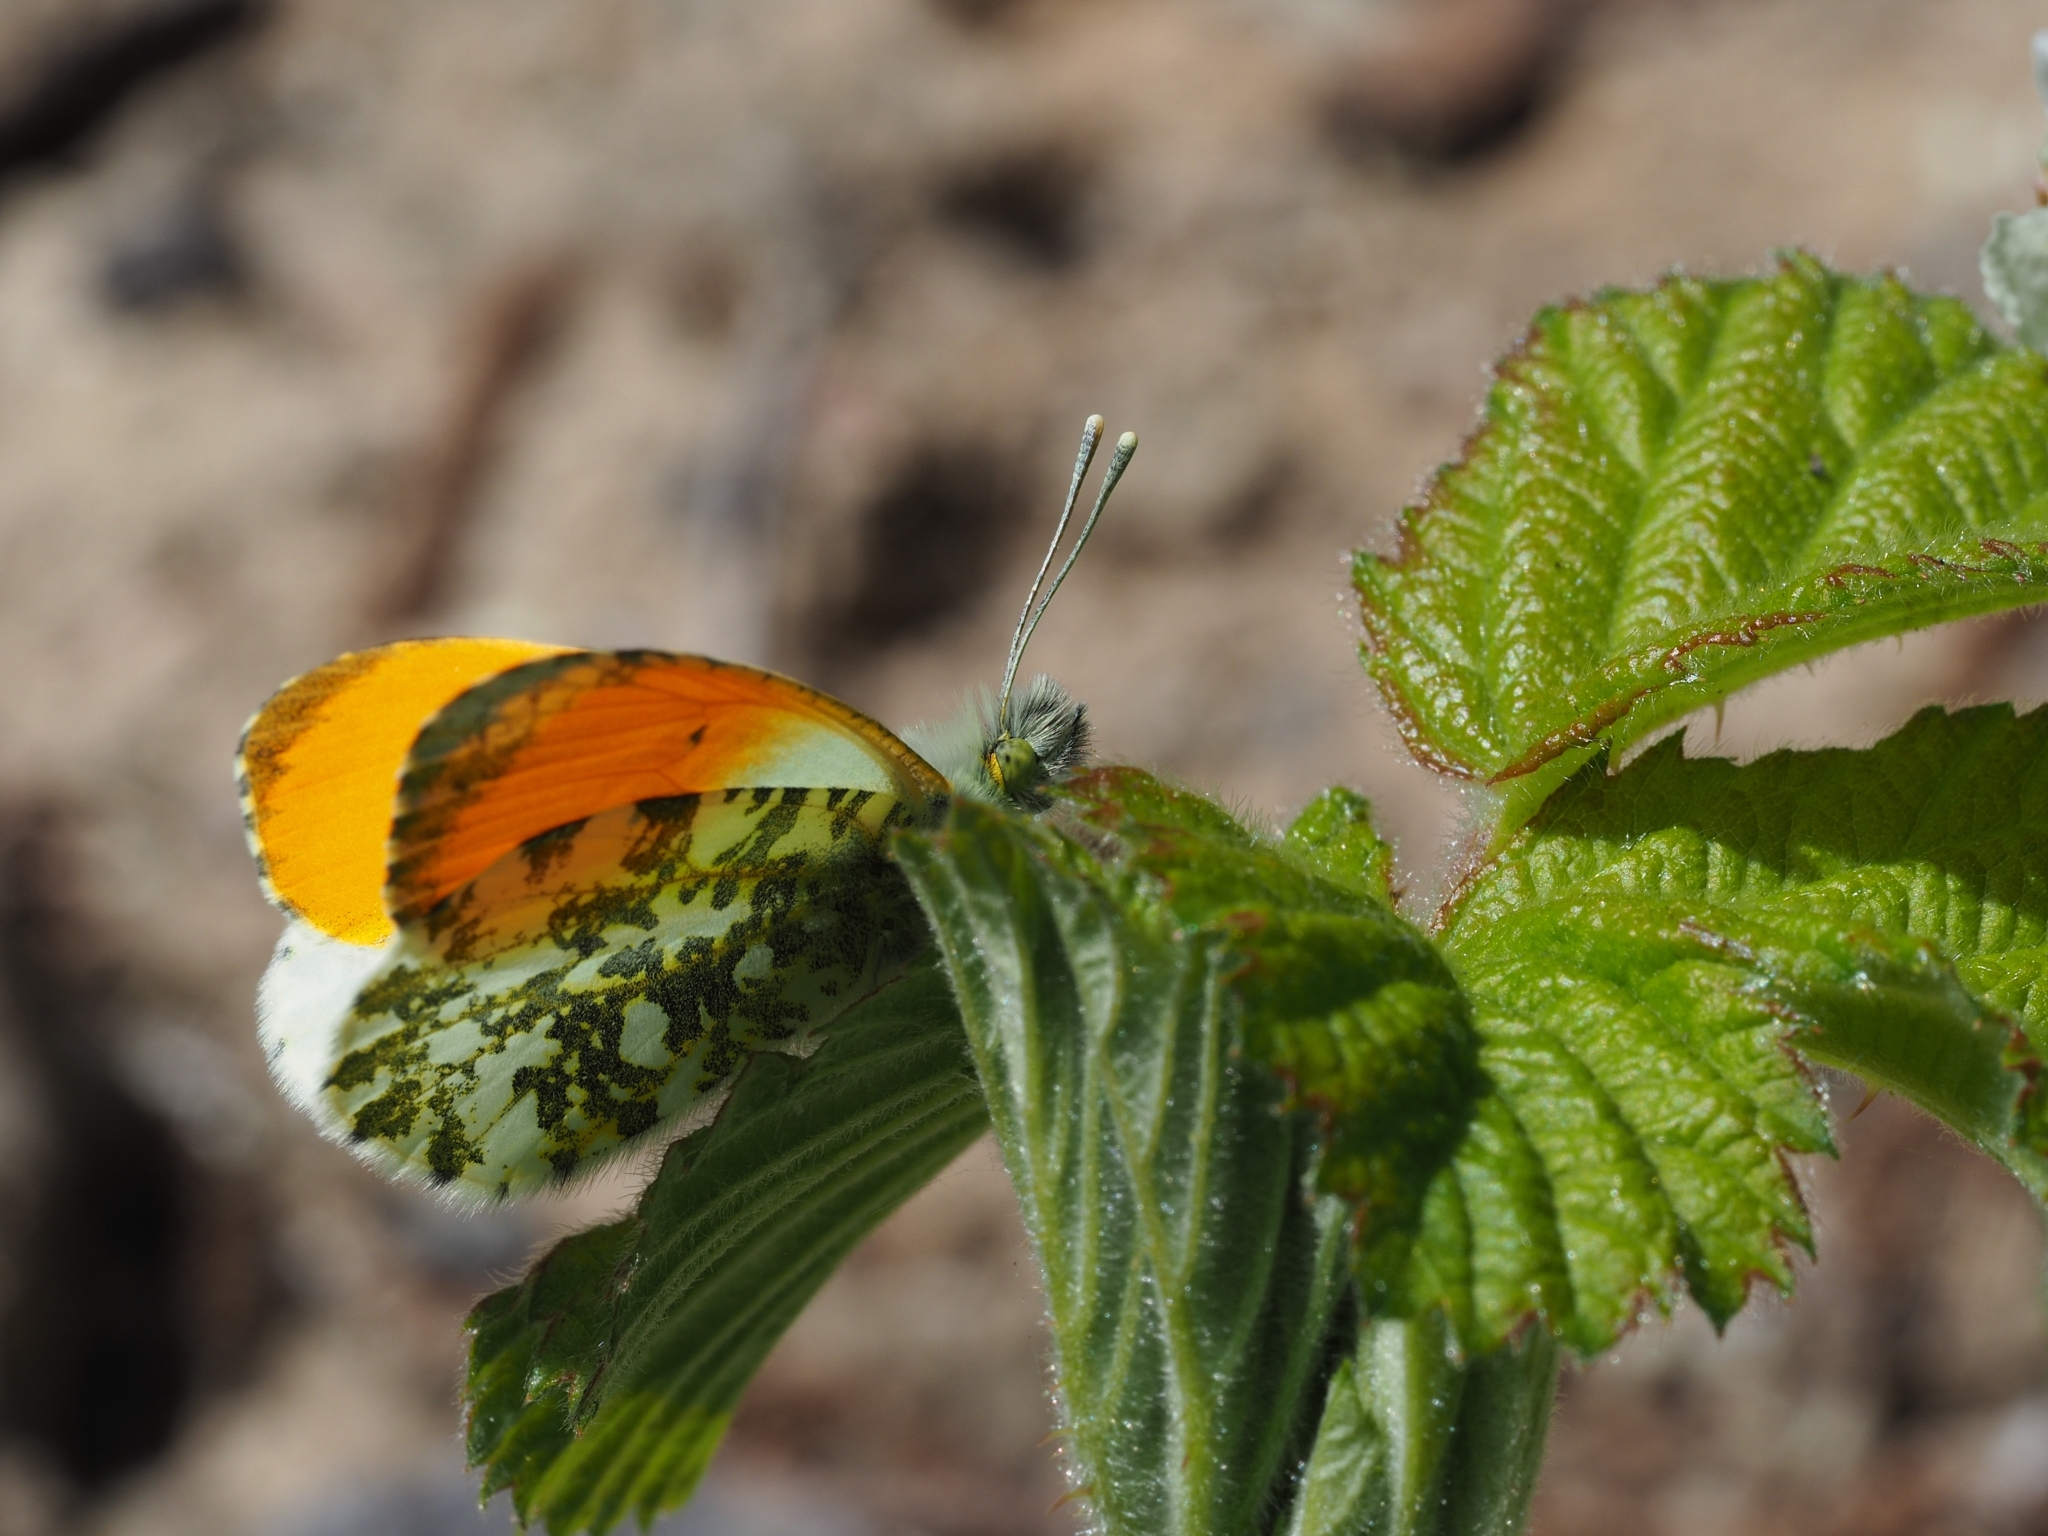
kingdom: Animalia
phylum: Arthropoda
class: Insecta
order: Lepidoptera
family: Pieridae
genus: Anthocharis
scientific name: Anthocharis cardamines
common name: Orange-tip
